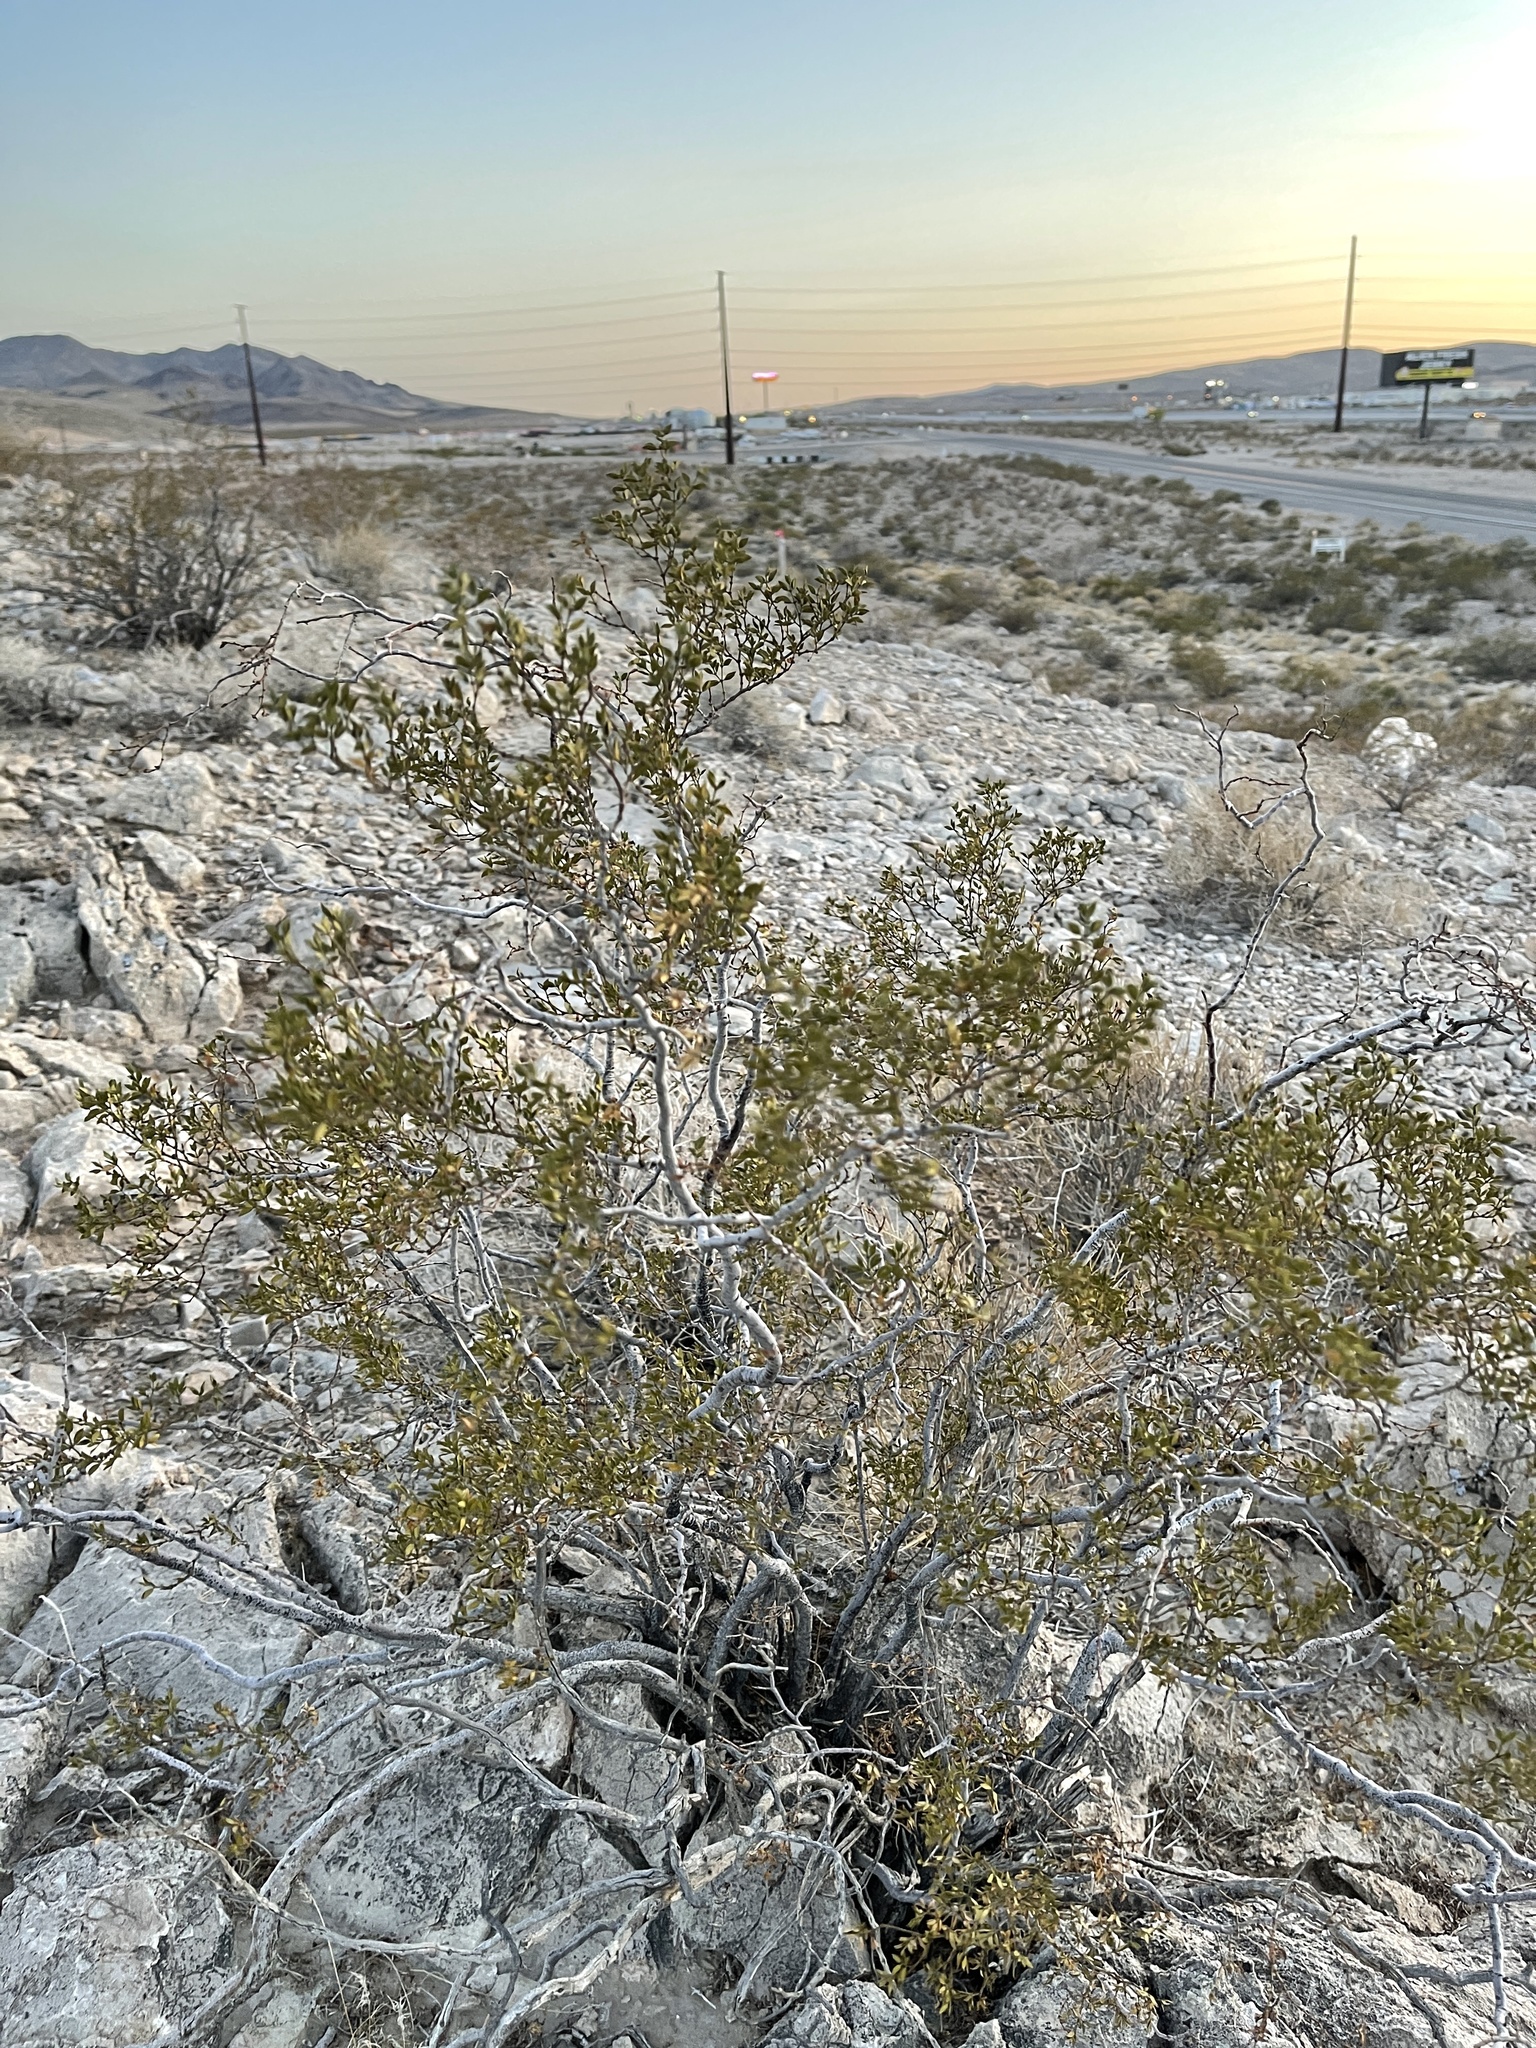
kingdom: Plantae
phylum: Tracheophyta
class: Magnoliopsida
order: Zygophyllales
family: Zygophyllaceae
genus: Larrea
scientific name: Larrea tridentata
